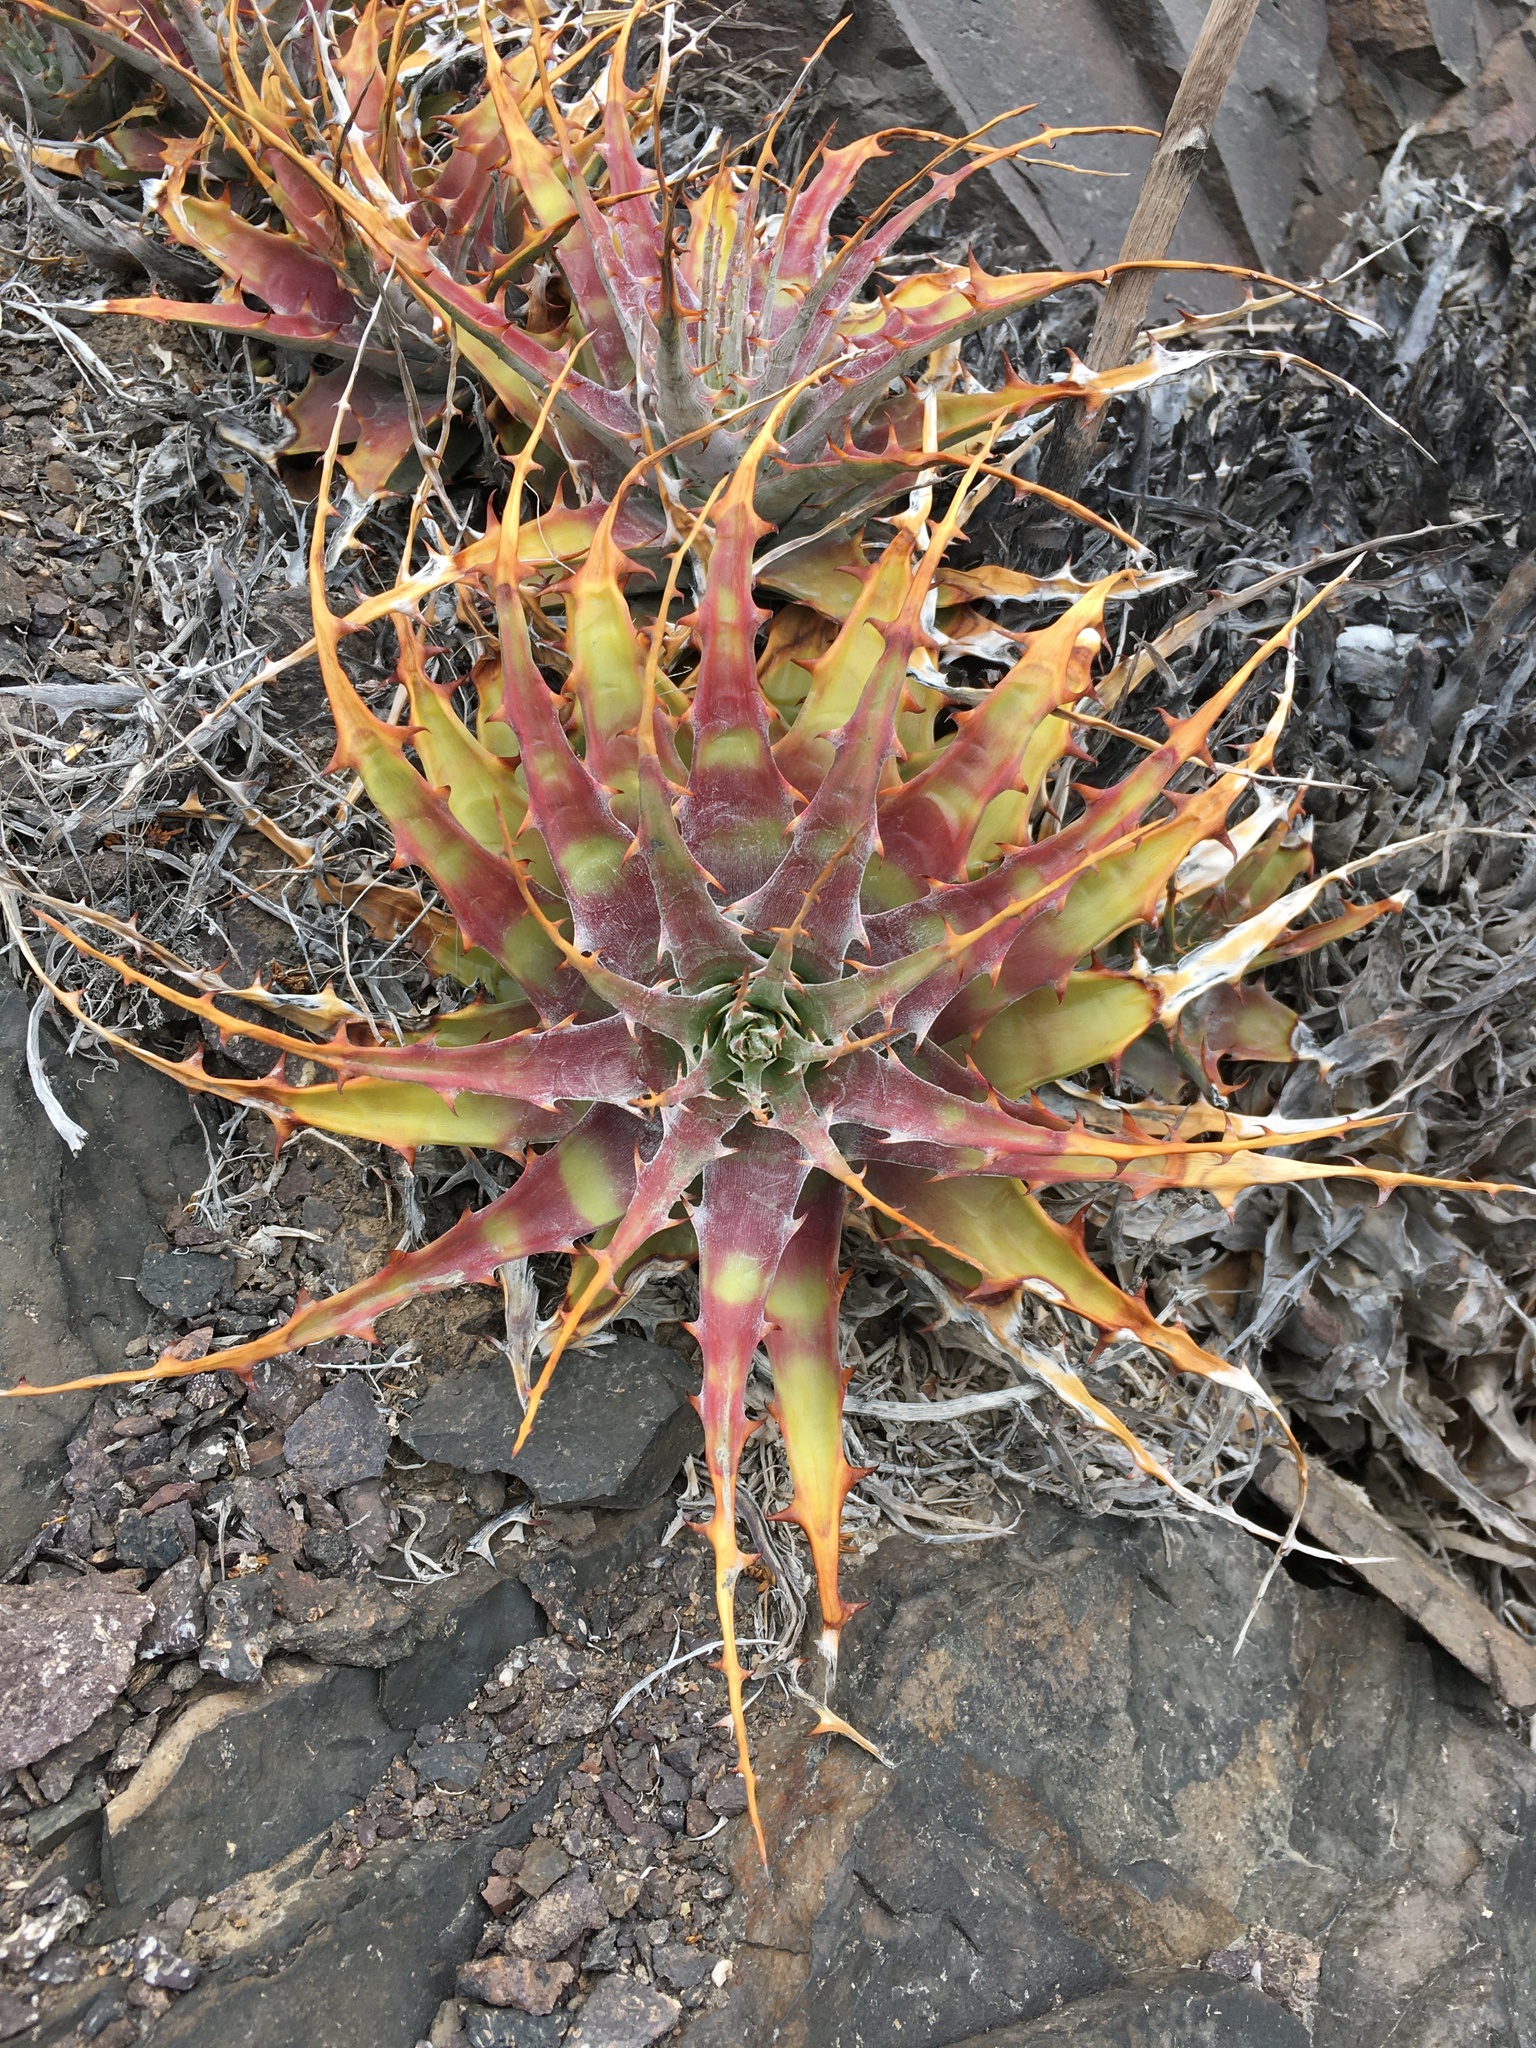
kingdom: Plantae
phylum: Tracheophyta
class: Liliopsida
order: Poales
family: Bromeliaceae
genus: Deuterocohnia
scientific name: Deuterocohnia chrysantha
